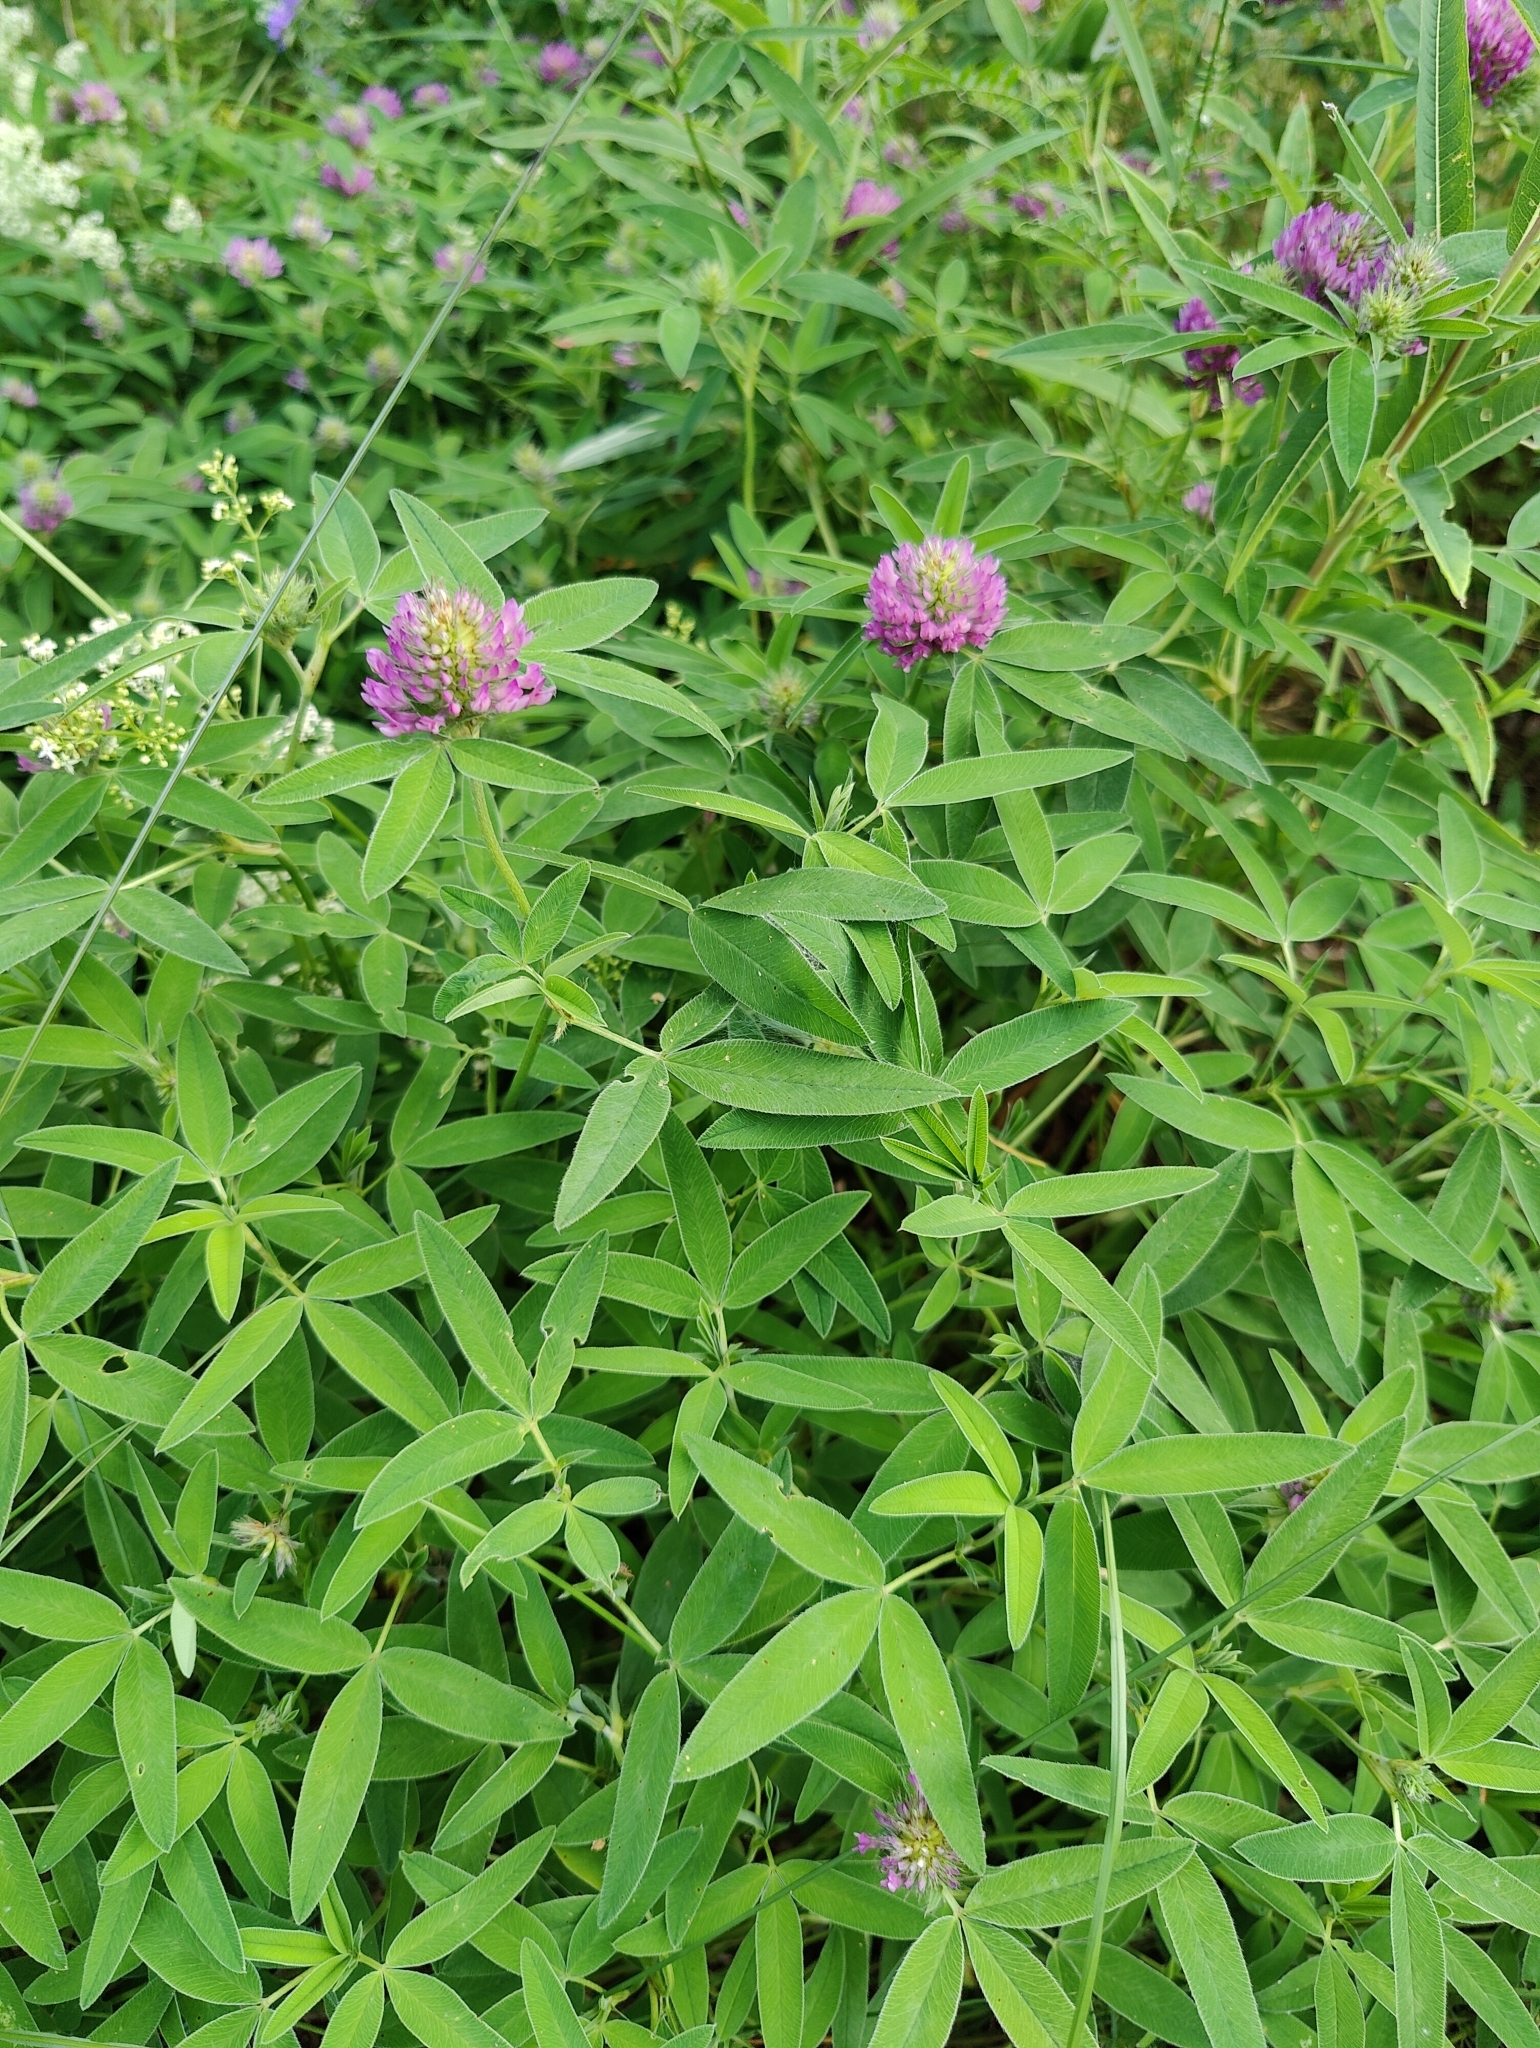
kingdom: Plantae
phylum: Tracheophyta
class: Magnoliopsida
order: Fabales
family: Fabaceae
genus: Trifolium
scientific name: Trifolium medium
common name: Zigzag clover
